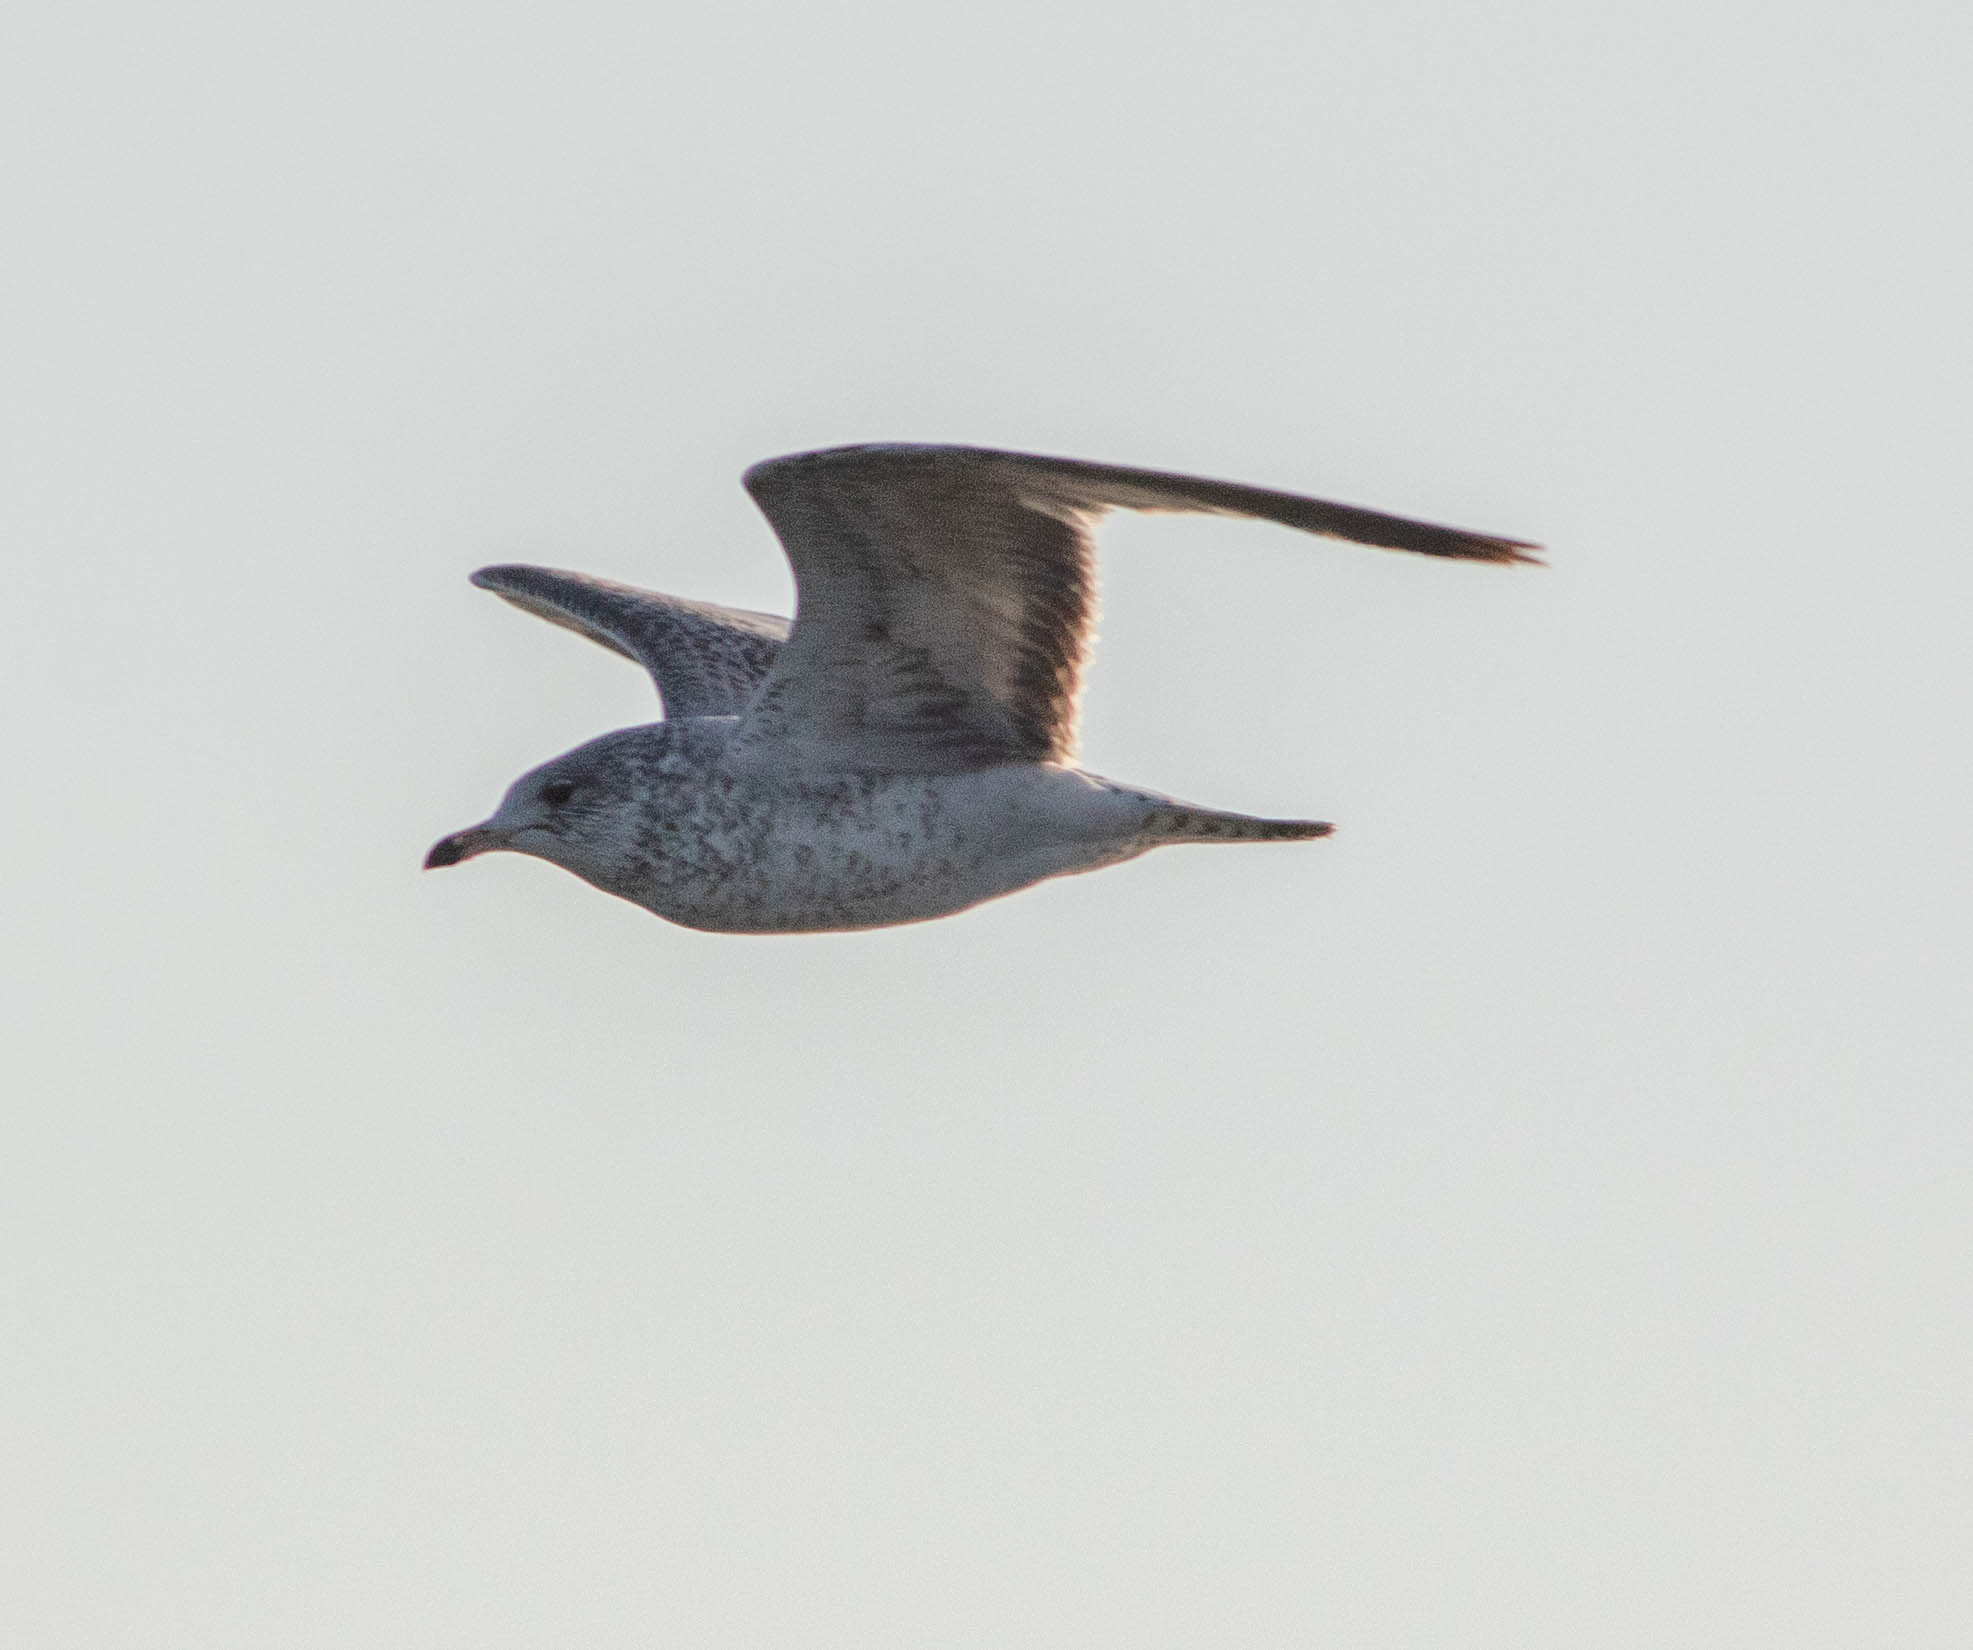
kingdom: Animalia
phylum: Chordata
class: Aves
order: Charadriiformes
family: Laridae
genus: Larus
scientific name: Larus delawarensis
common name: Ring-billed gull
